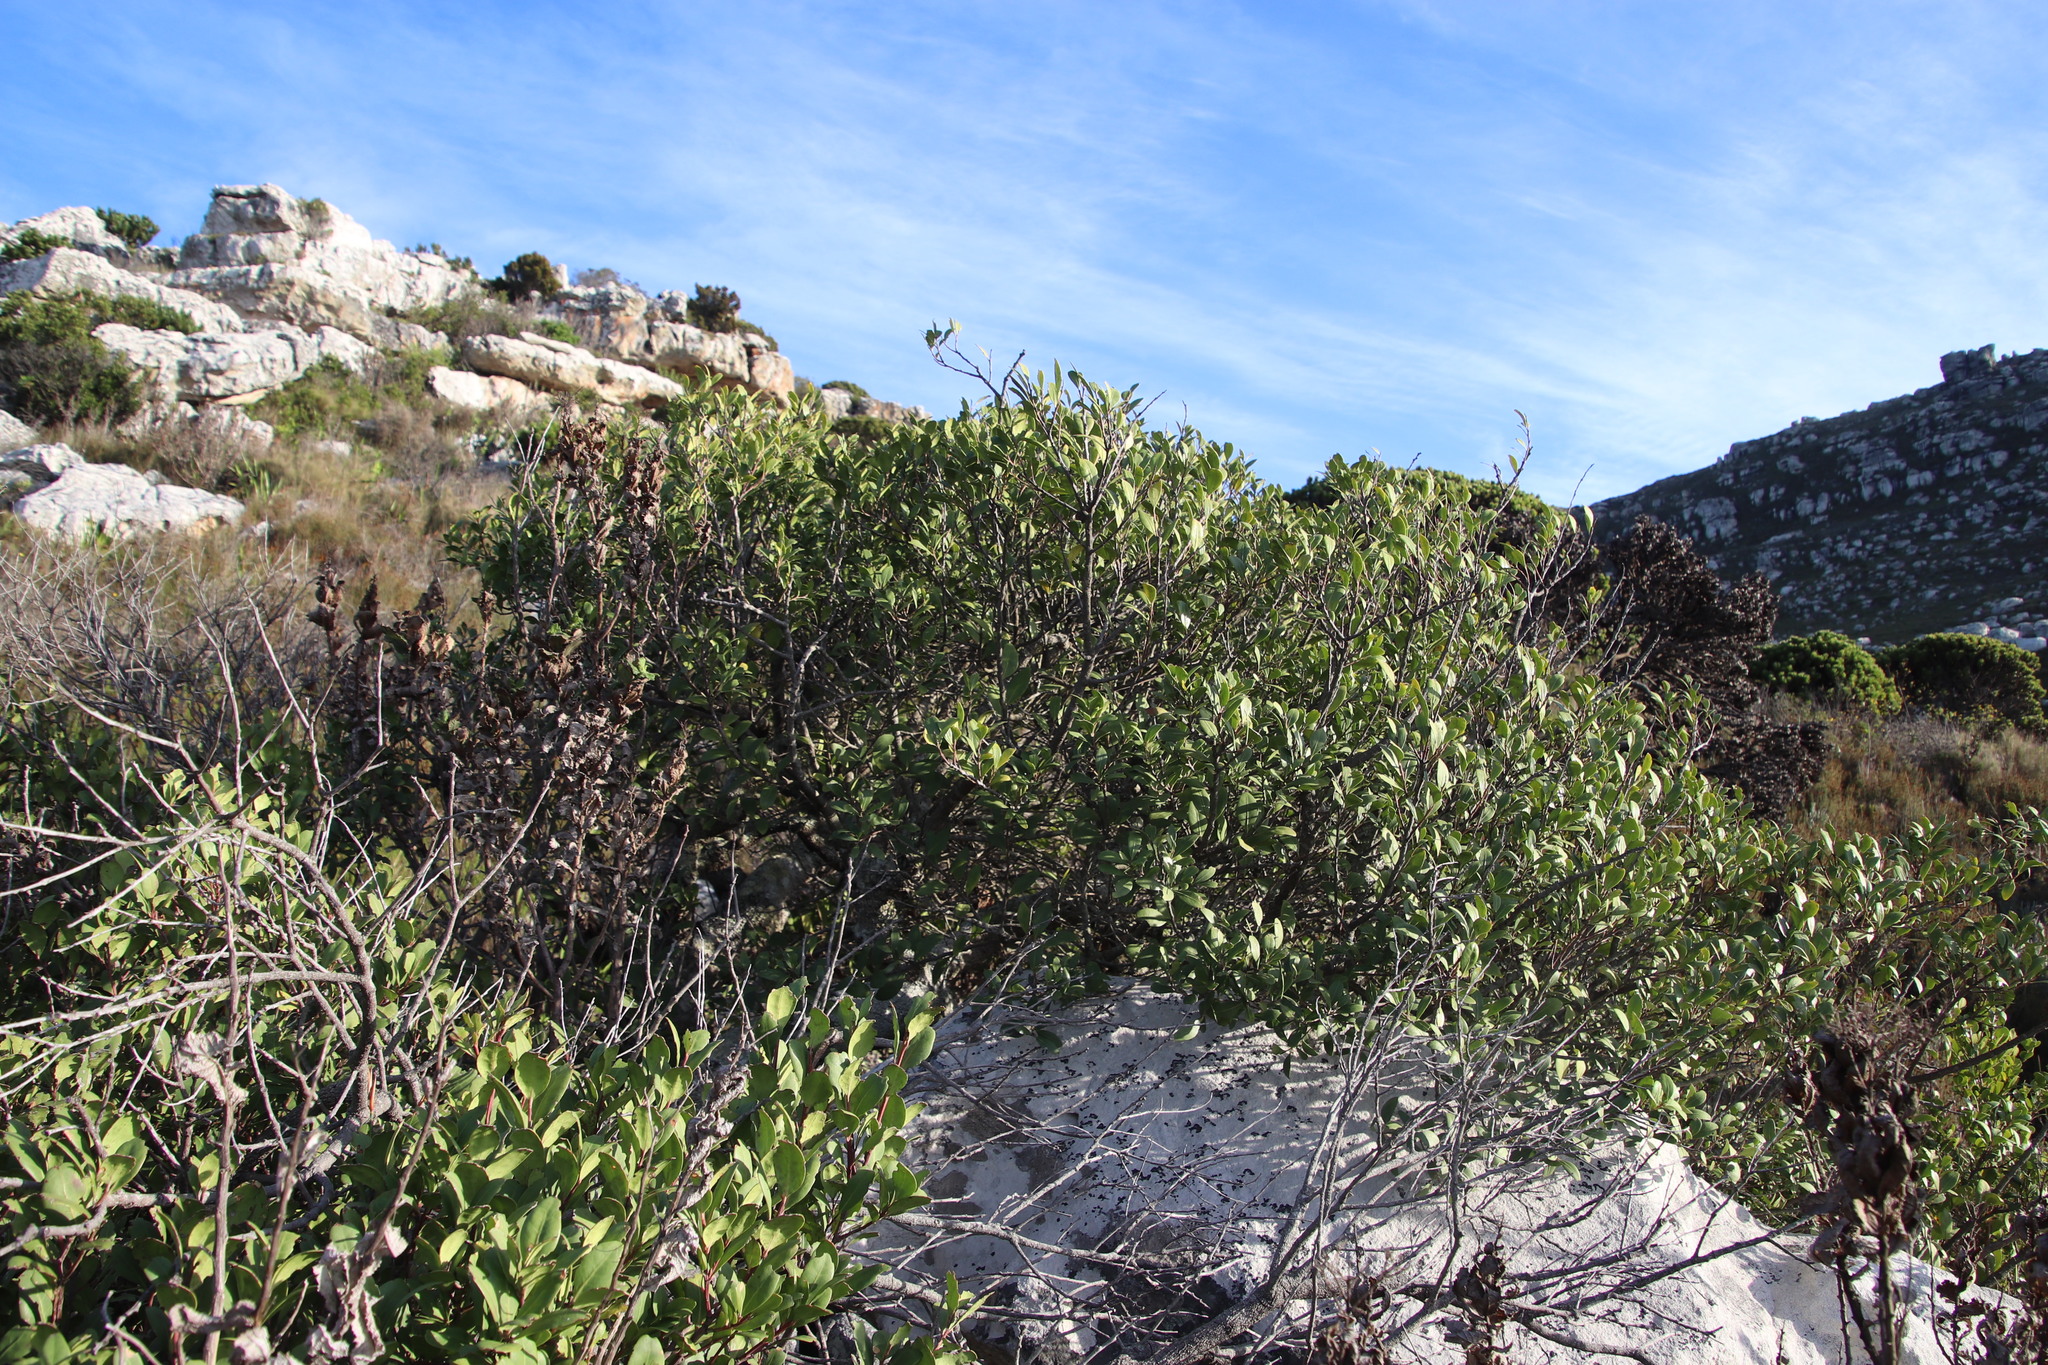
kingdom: Plantae
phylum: Tracheophyta
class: Magnoliopsida
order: Celastrales
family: Celastraceae
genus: Gymnosporia
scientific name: Gymnosporia laurina
